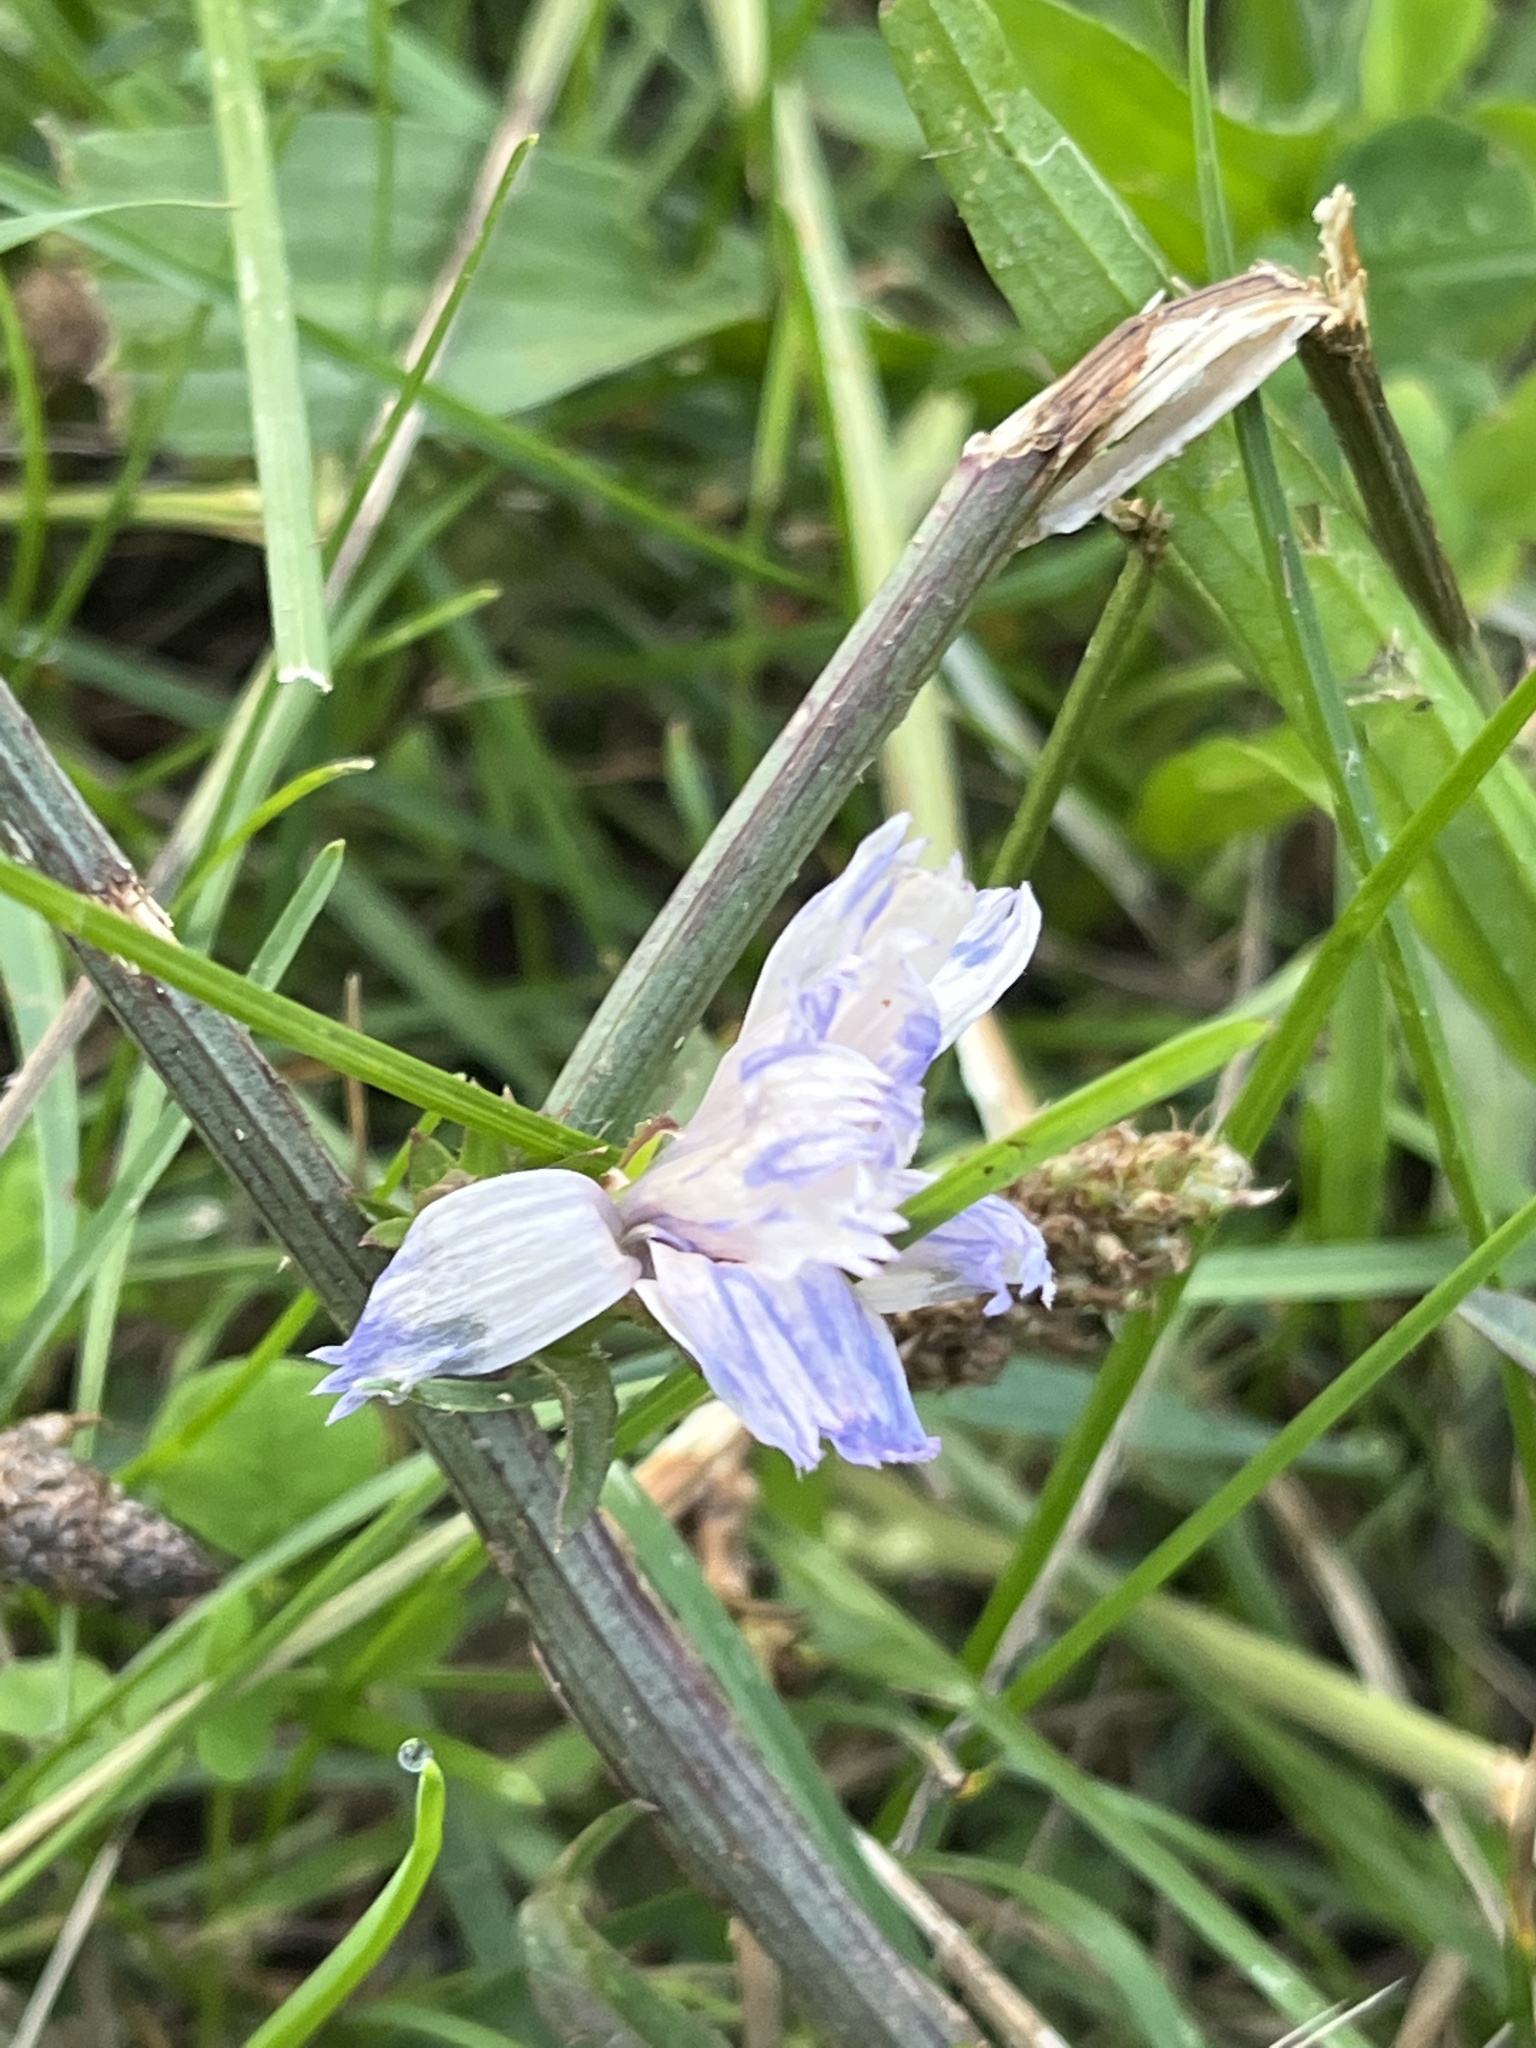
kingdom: Plantae
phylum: Tracheophyta
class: Magnoliopsida
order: Asterales
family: Asteraceae
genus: Cichorium
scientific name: Cichorium intybus
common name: Chicory
